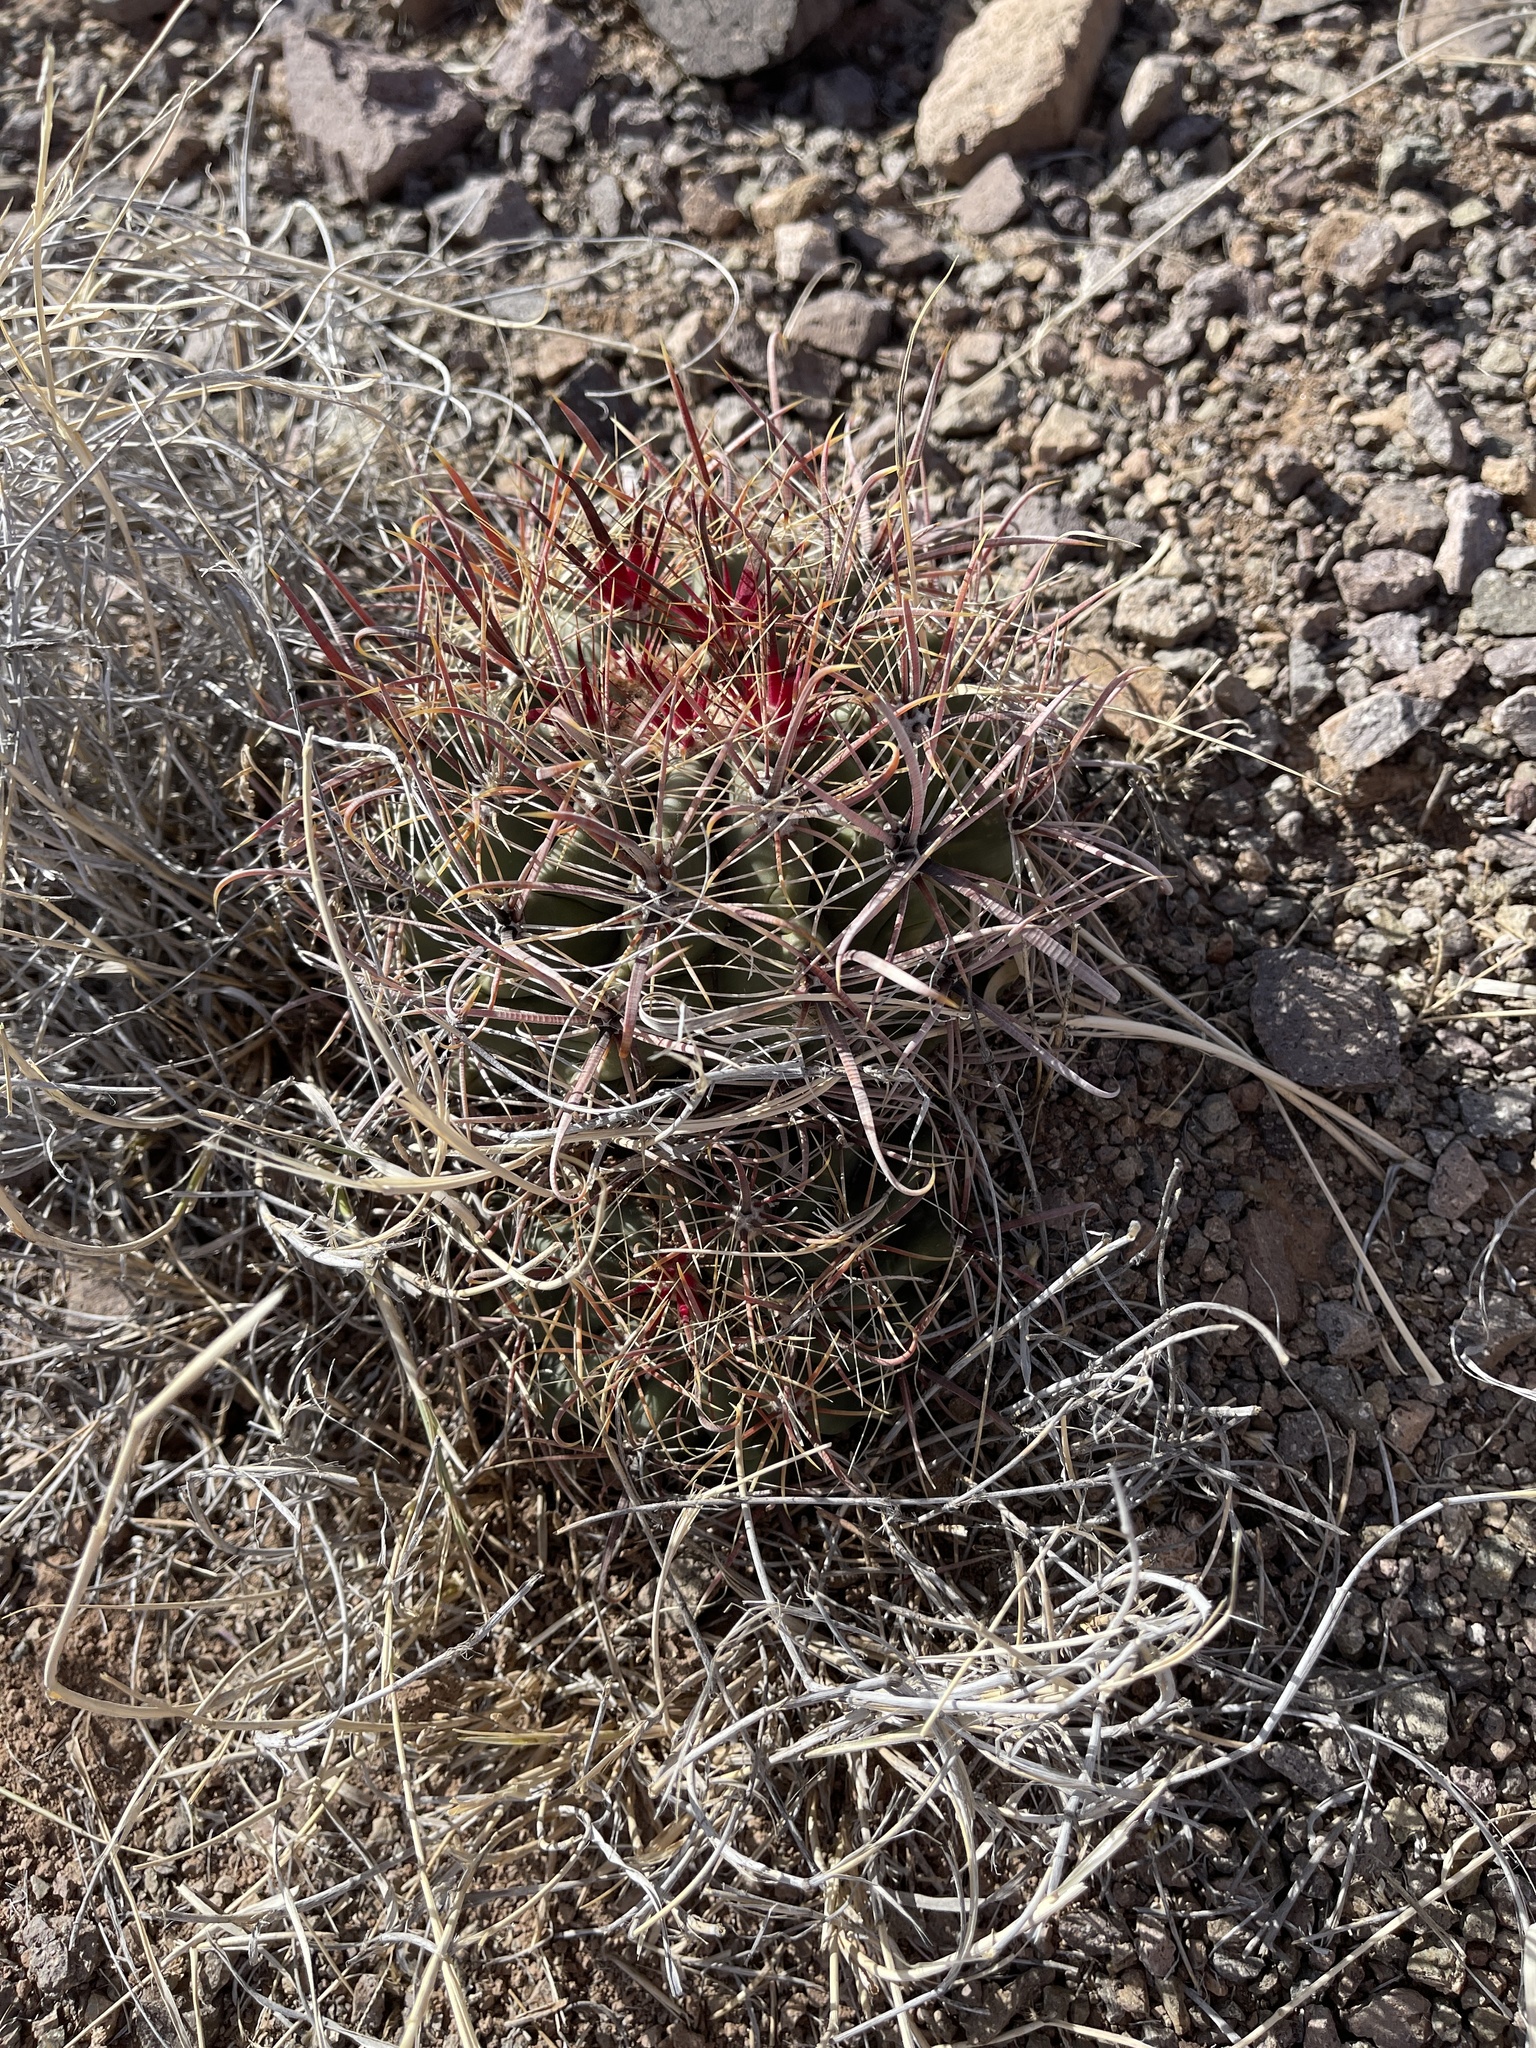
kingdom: Plantae
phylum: Tracheophyta
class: Magnoliopsida
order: Caryophyllales
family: Cactaceae
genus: Ferocactus
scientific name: Ferocactus wislizeni
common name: Candy barrel cactus
